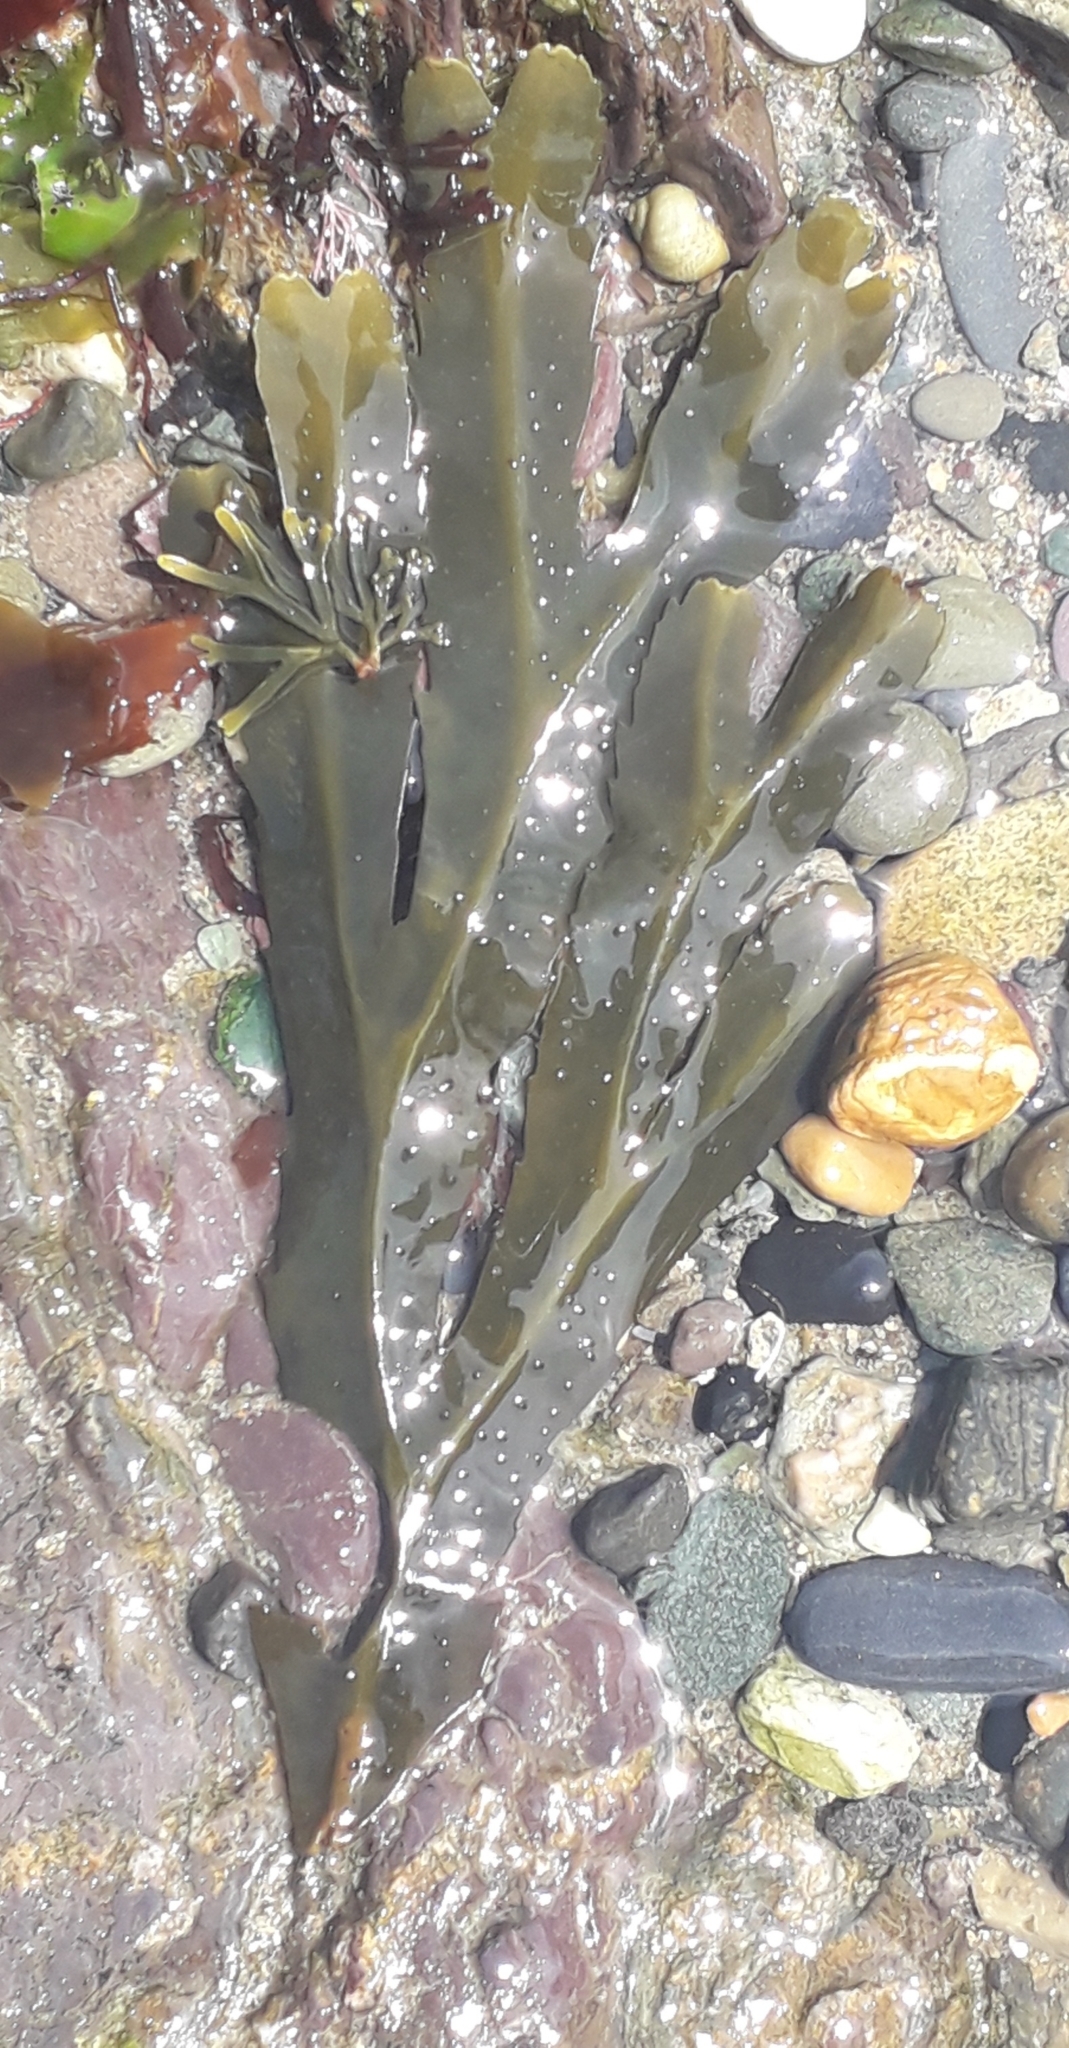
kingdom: Chromista
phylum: Ochrophyta
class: Phaeophyceae
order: Fucales
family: Fucaceae
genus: Fucus
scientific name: Fucus serratus
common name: Toothed wrack
